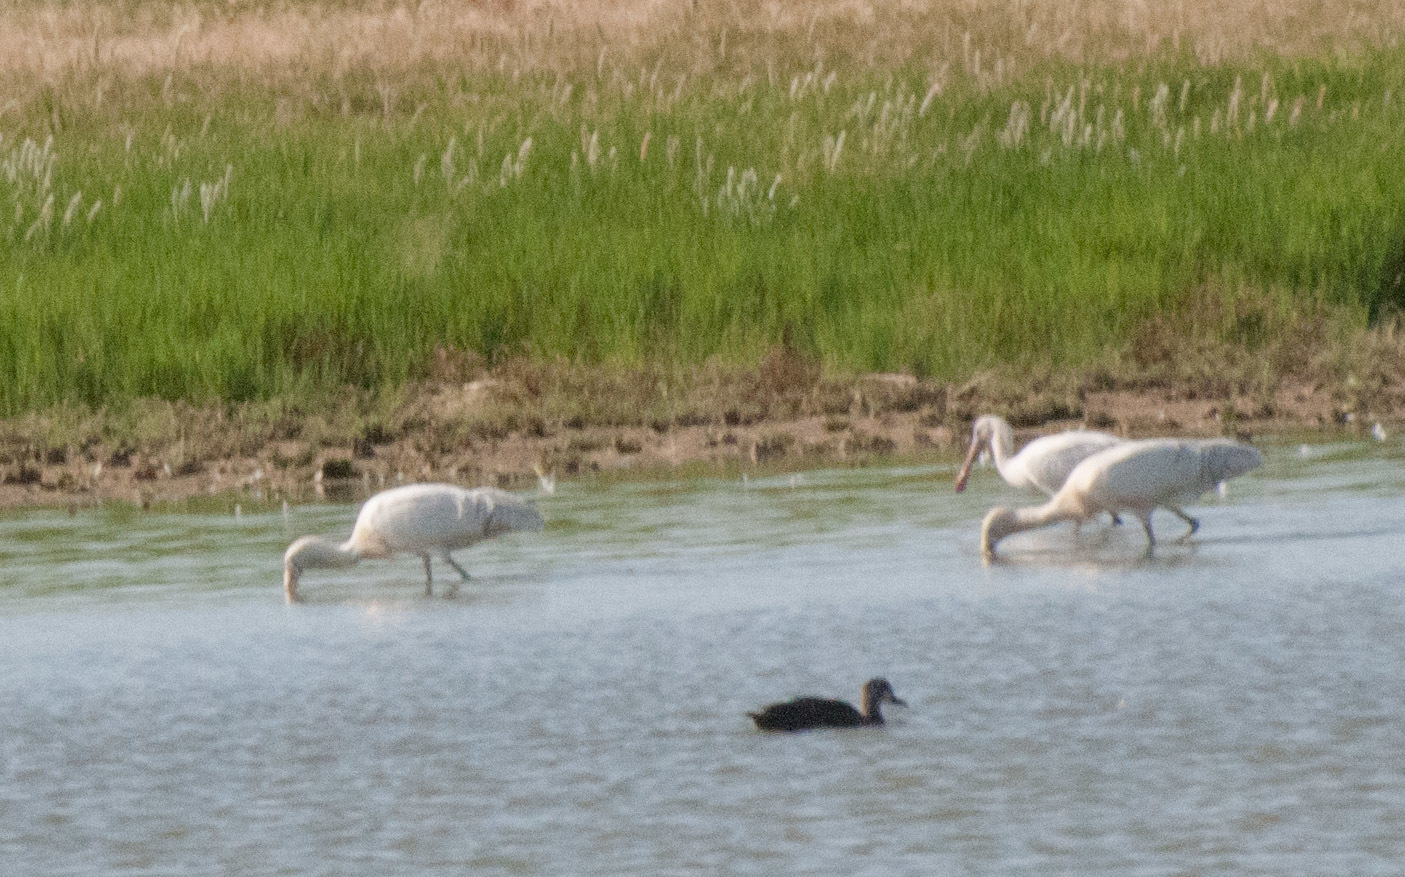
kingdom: Animalia
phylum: Chordata
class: Aves
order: Pelecaniformes
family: Threskiornithidae
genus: Platalea
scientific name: Platalea flavipes
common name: Yellow-billed spoonbill
